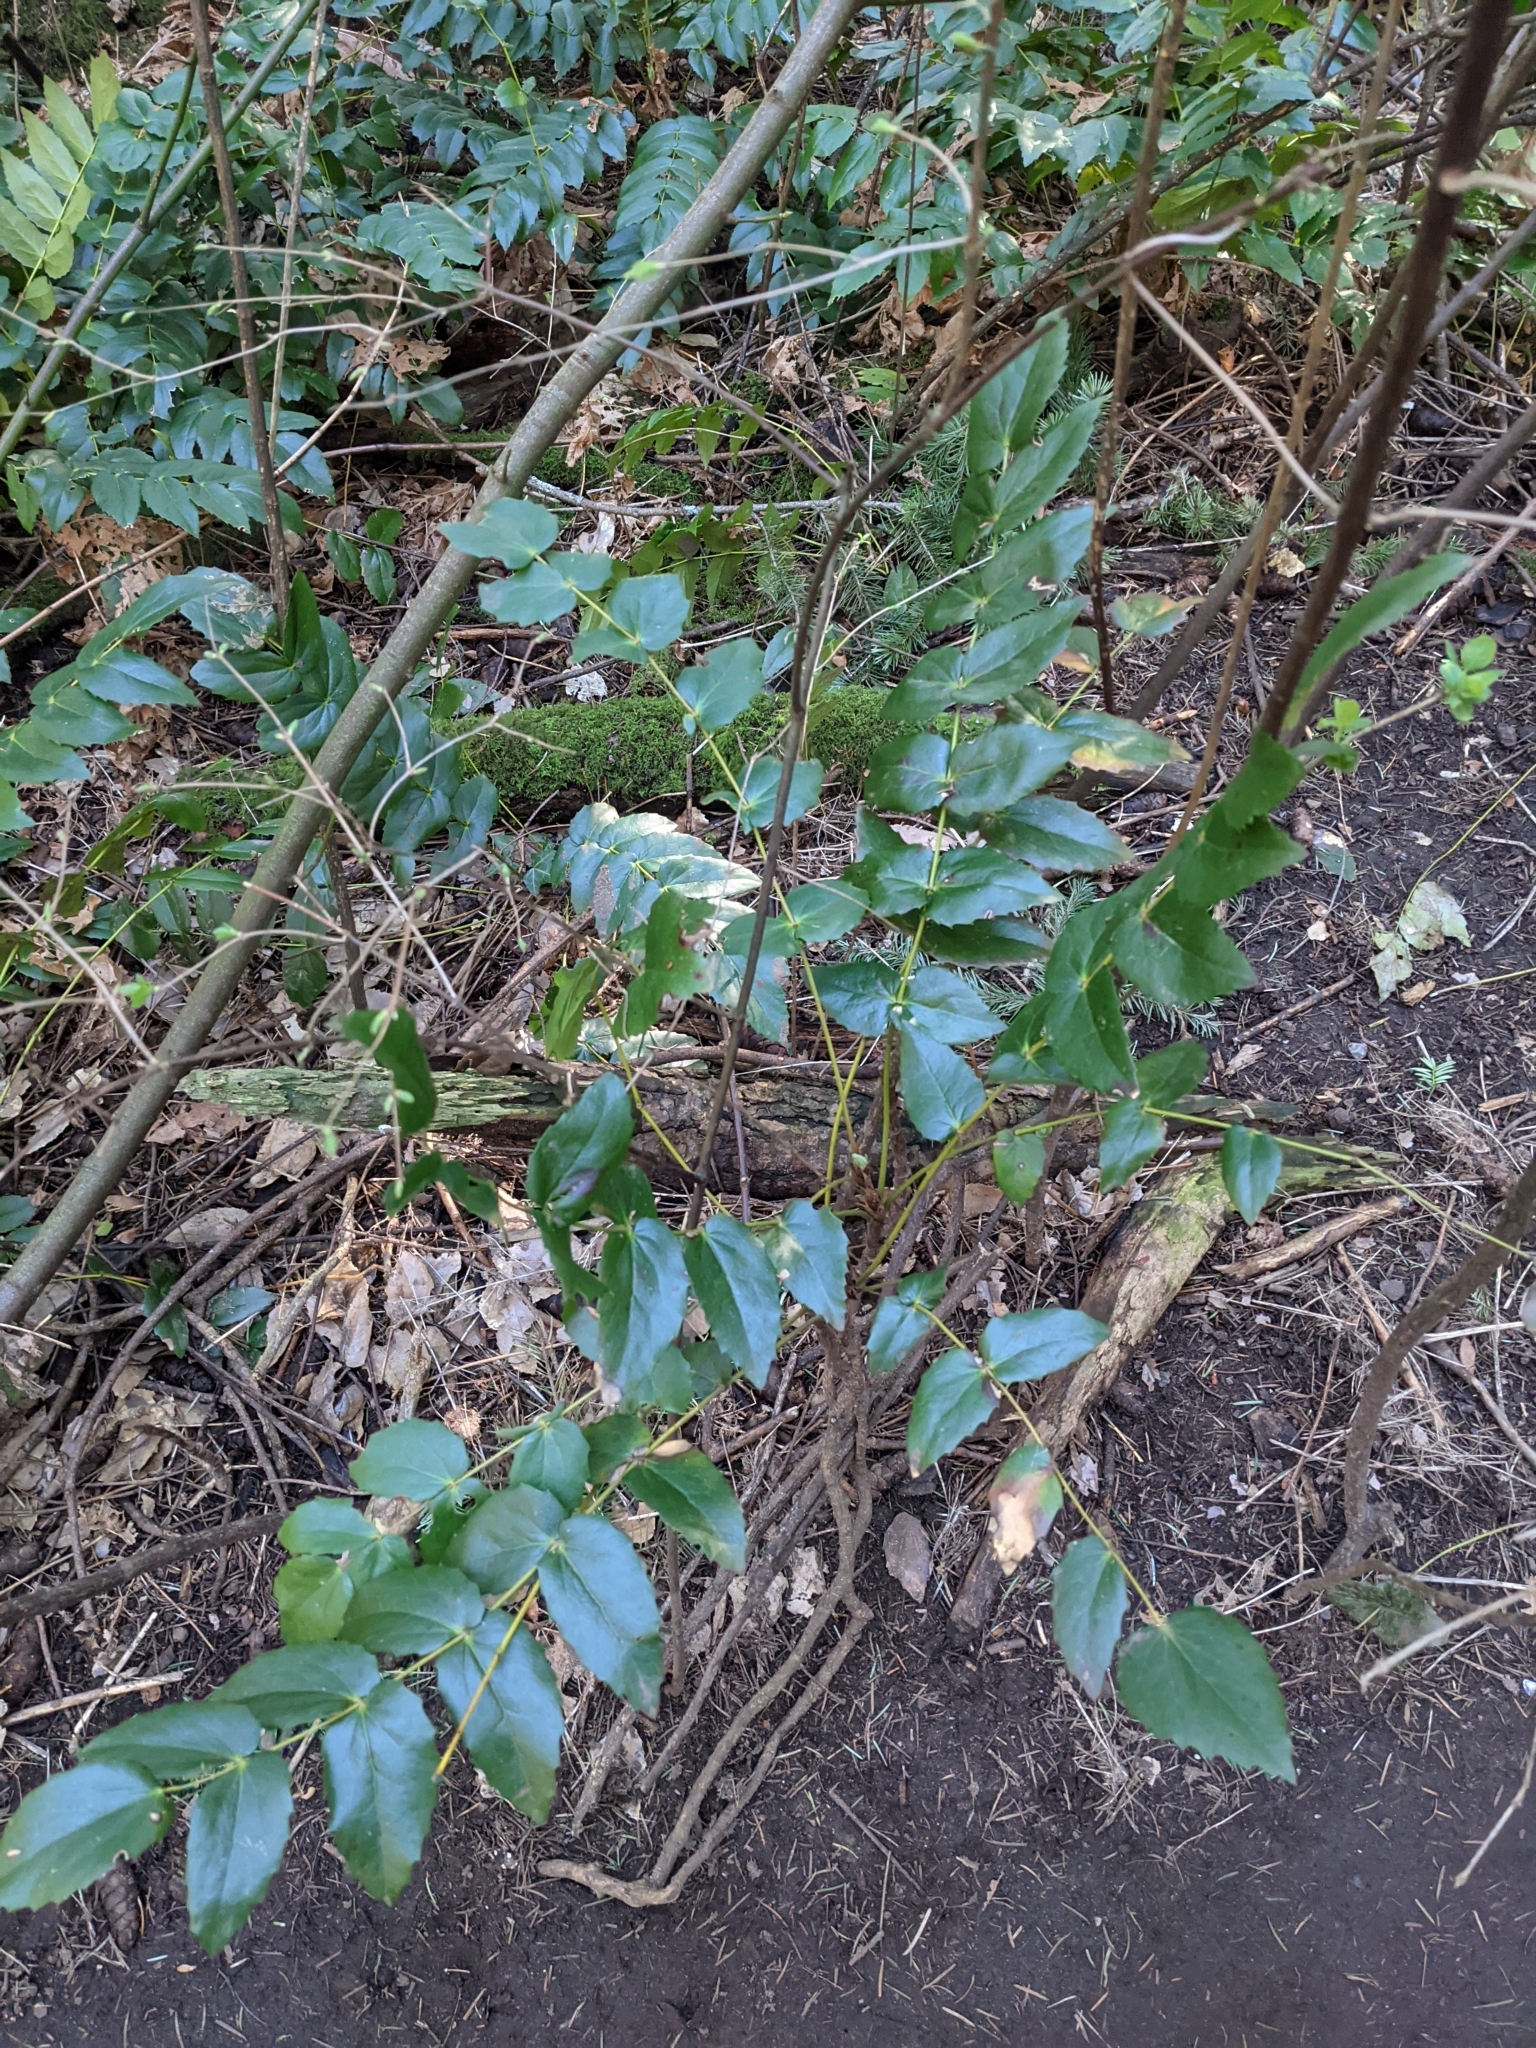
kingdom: Plantae
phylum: Tracheophyta
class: Magnoliopsida
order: Ranunculales
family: Berberidaceae
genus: Mahonia
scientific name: Mahonia nervosa
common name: Cascade oregon-grape
